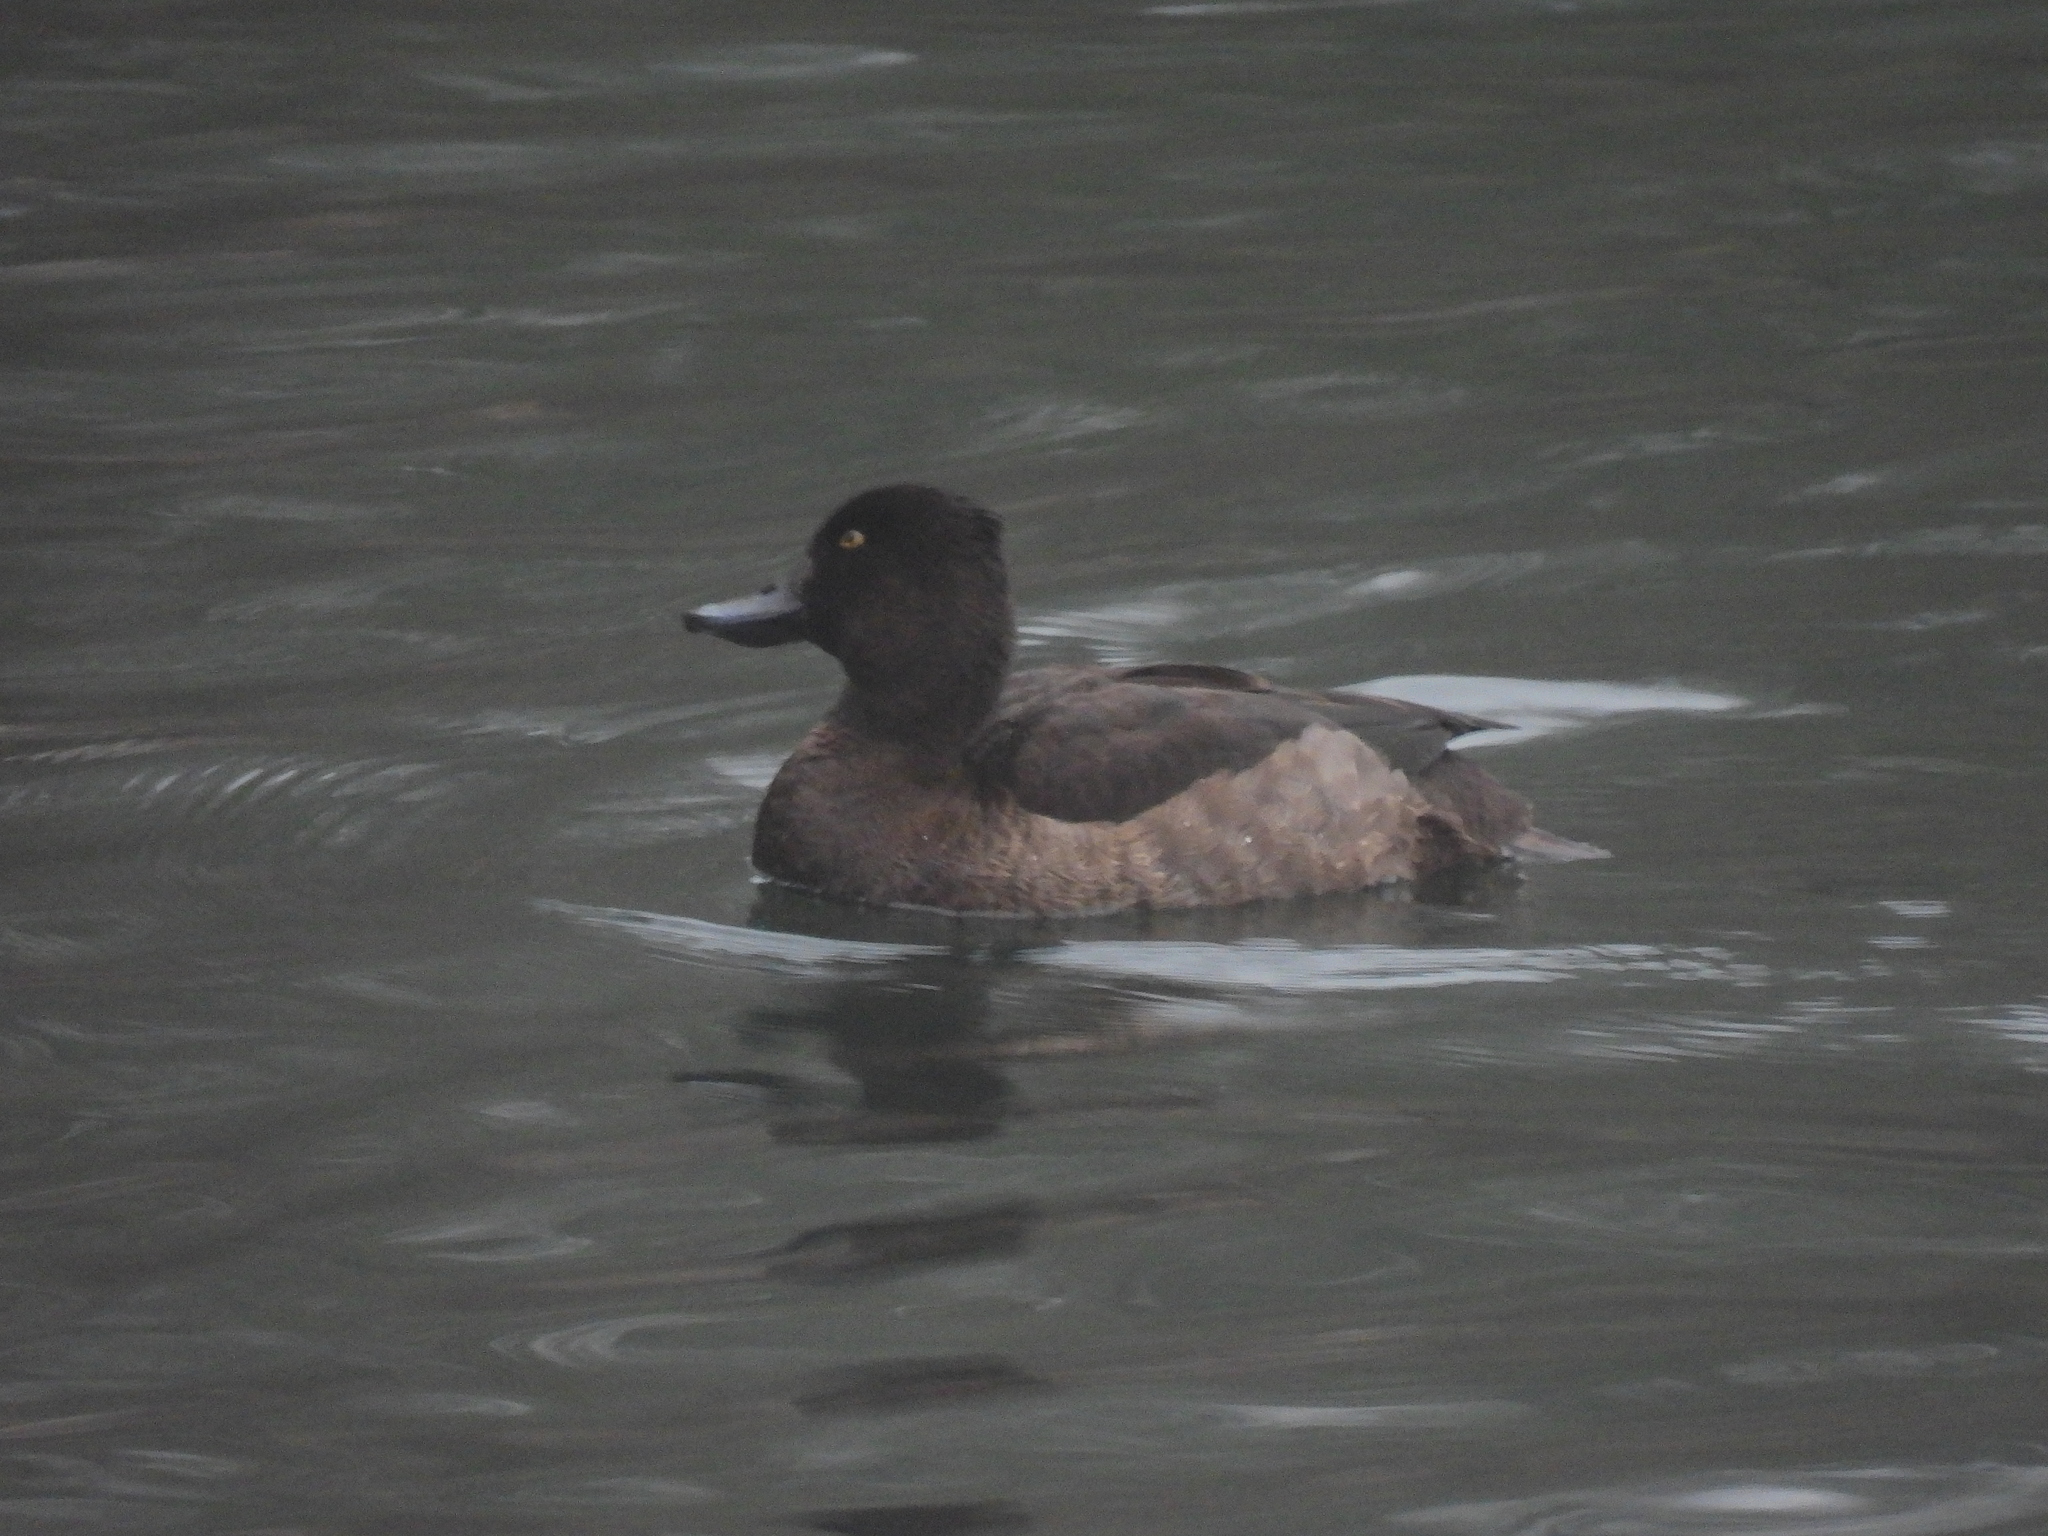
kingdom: Animalia
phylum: Chordata
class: Aves
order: Anseriformes
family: Anatidae
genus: Aythya
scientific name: Aythya fuligula
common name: Tufted duck
